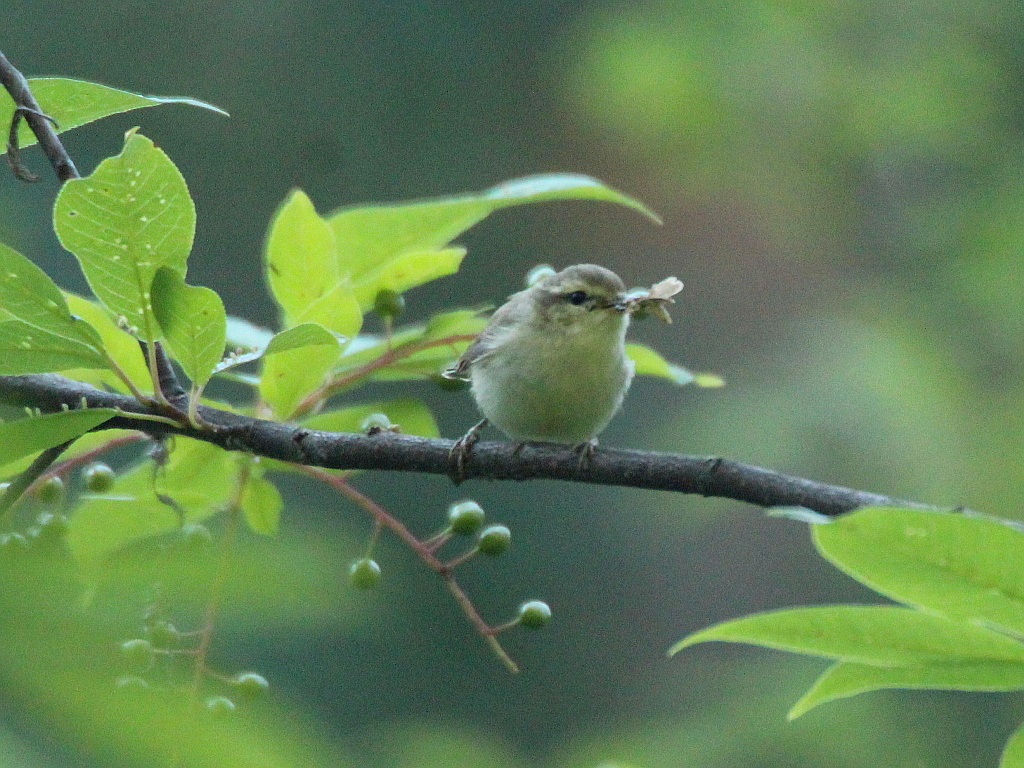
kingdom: Animalia
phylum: Chordata
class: Aves
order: Passeriformes
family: Phylloscopidae
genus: Phylloscopus
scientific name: Phylloscopus trochiloides
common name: Greenish warbler
